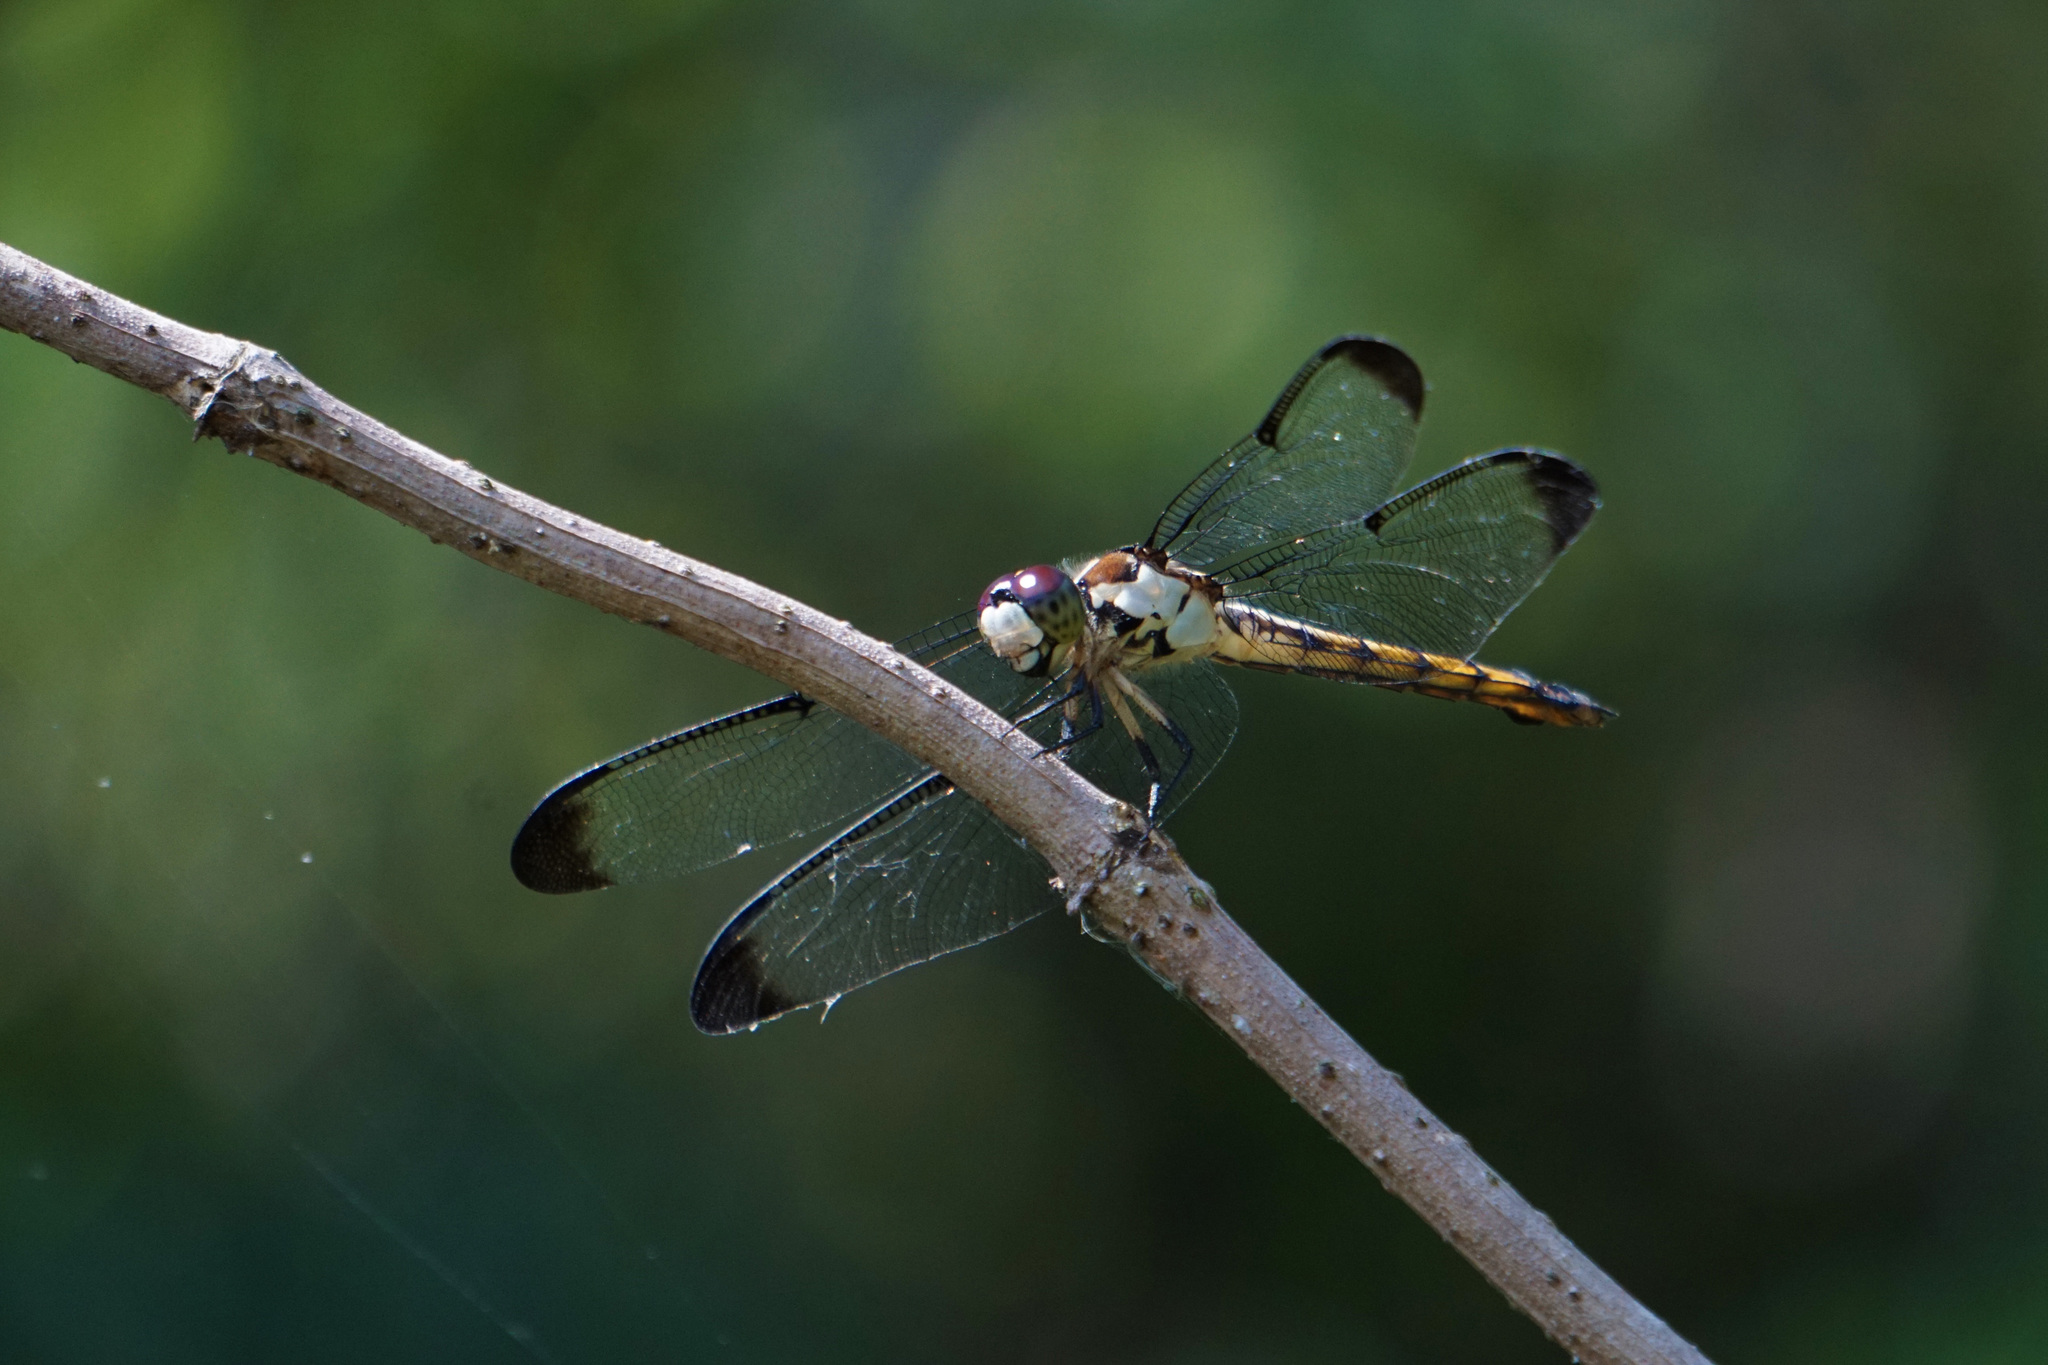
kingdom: Animalia
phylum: Arthropoda
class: Insecta
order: Odonata
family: Libellulidae
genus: Libellula
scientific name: Libellula vibrans
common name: Great blue skimmer
